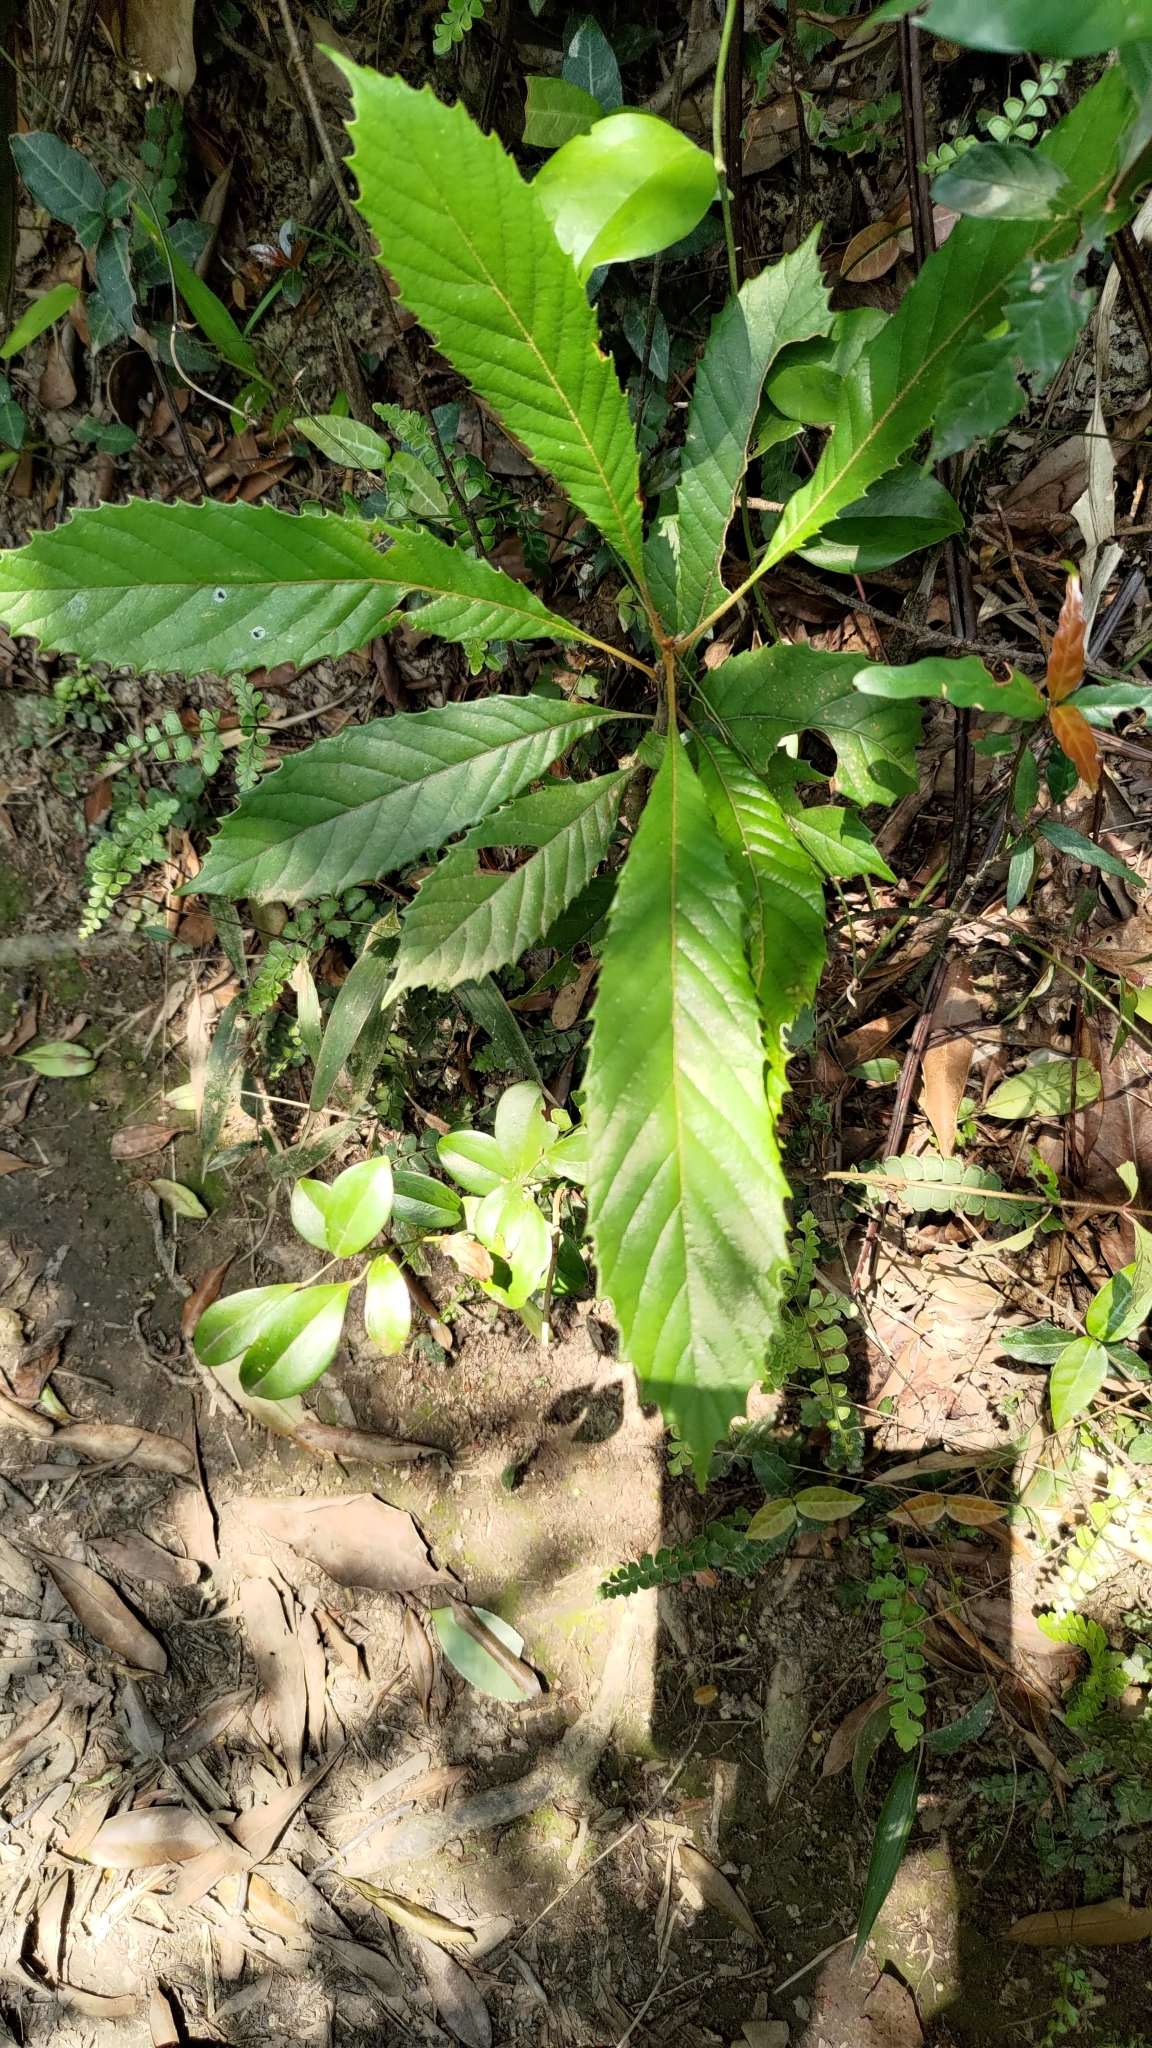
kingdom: Plantae
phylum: Tracheophyta
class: Magnoliopsida
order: Proteales
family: Sabiaceae
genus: Meliosma
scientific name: Meliosma rigida
